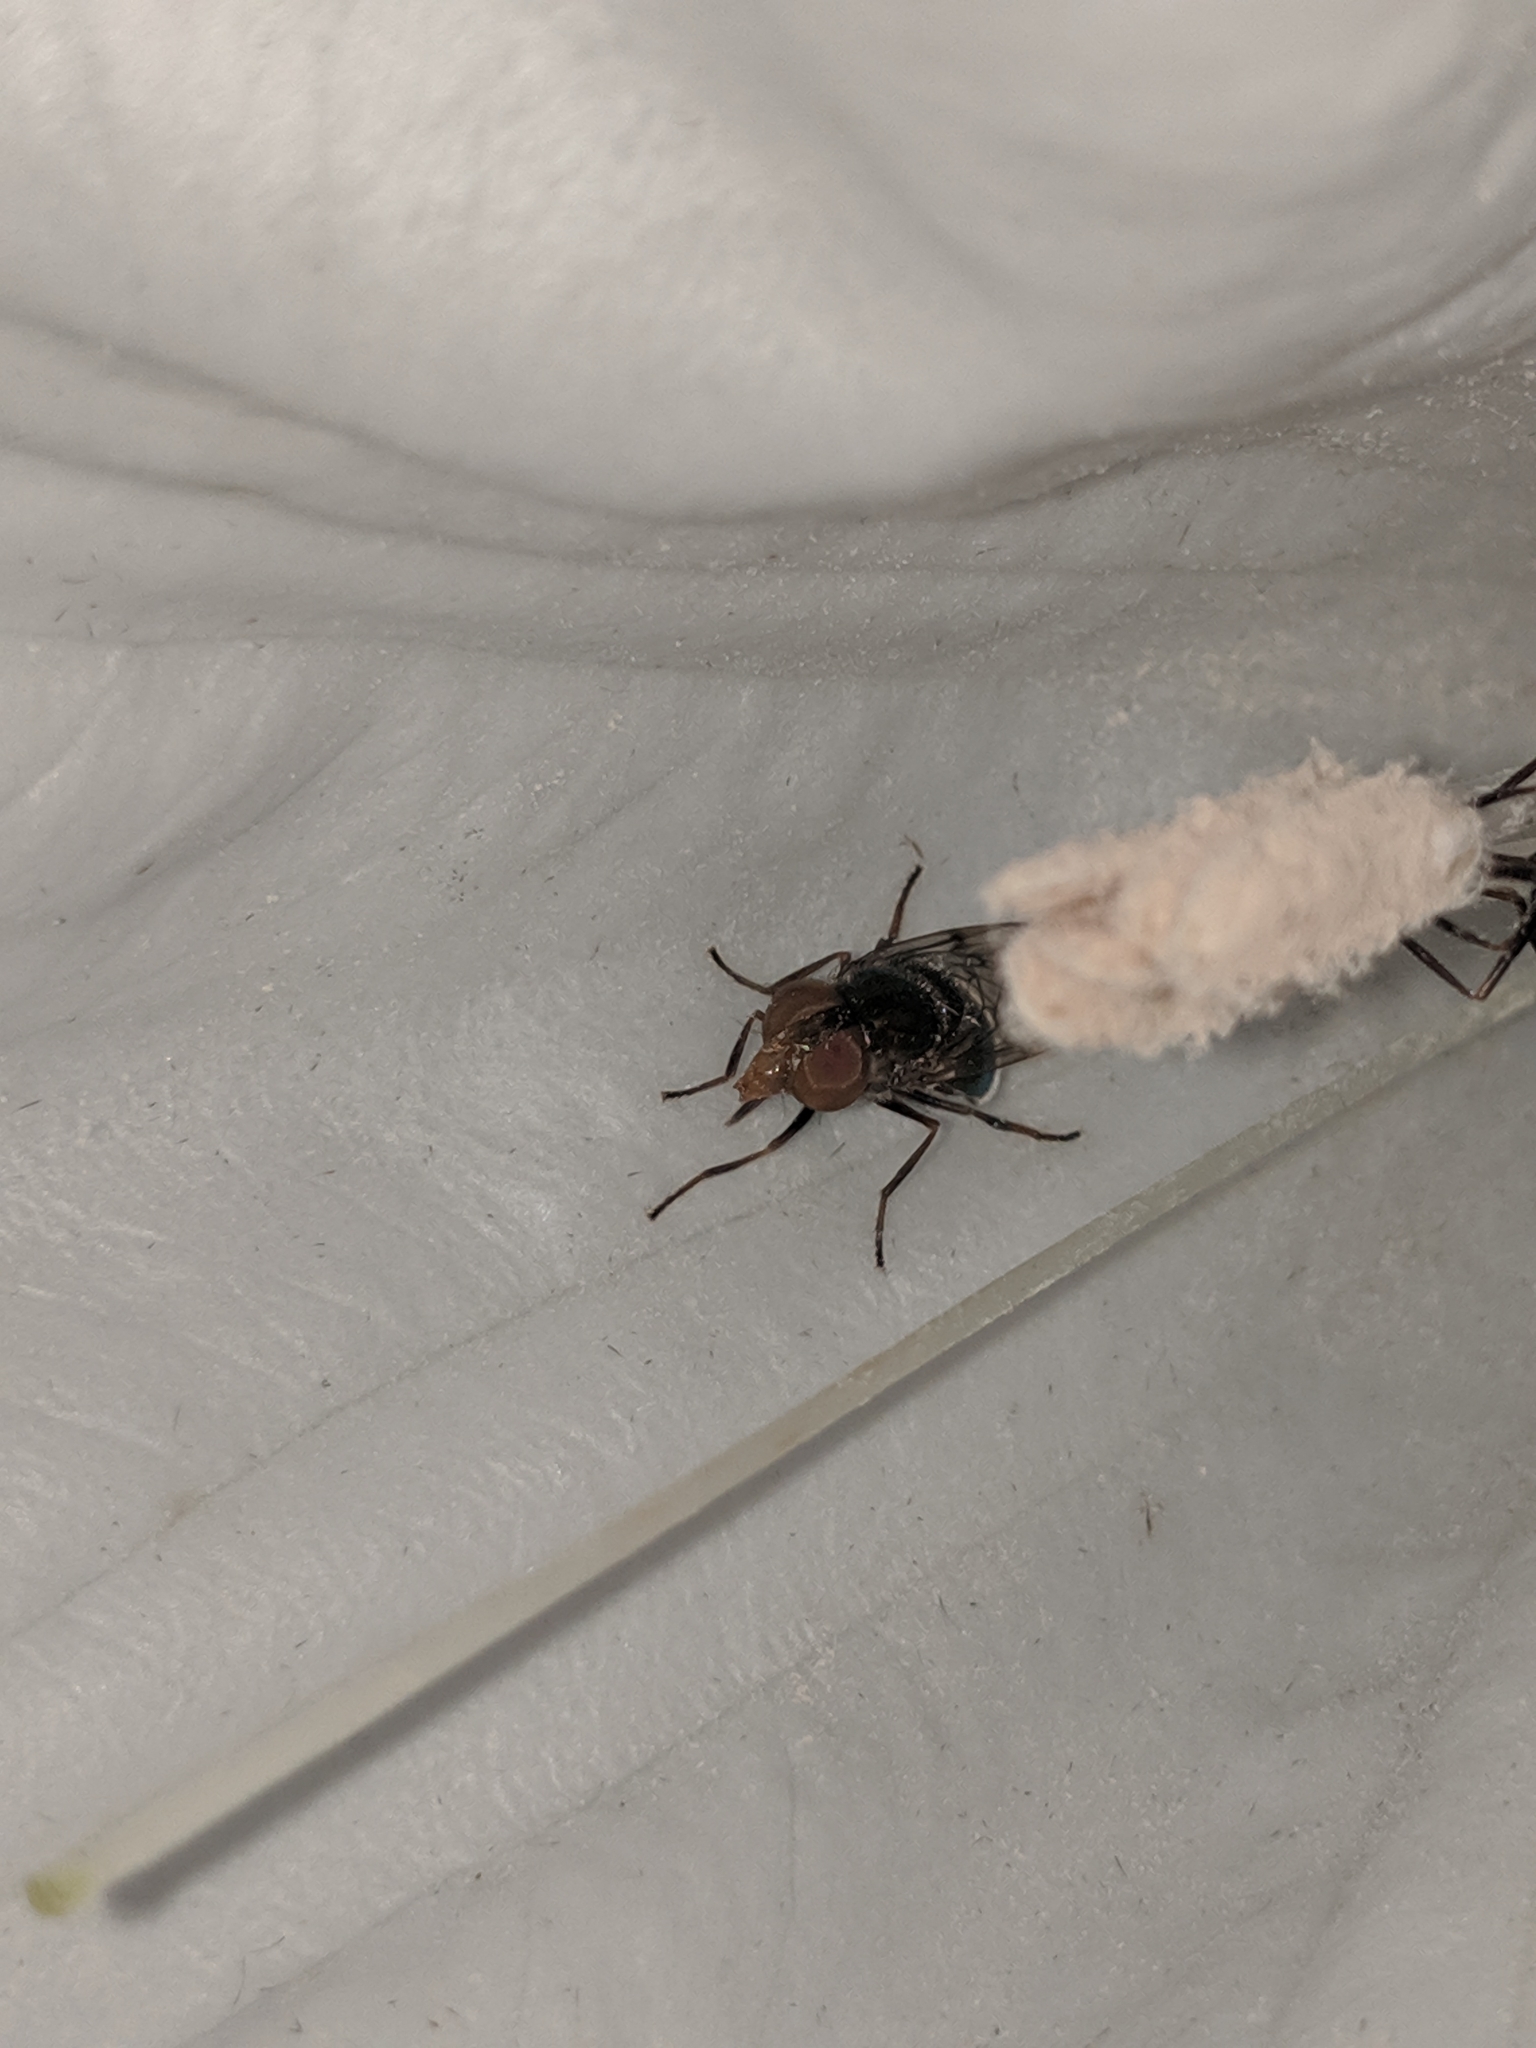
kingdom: Animalia
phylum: Arthropoda
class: Insecta
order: Diptera
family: Syrphidae
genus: Copestylum
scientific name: Copestylum
